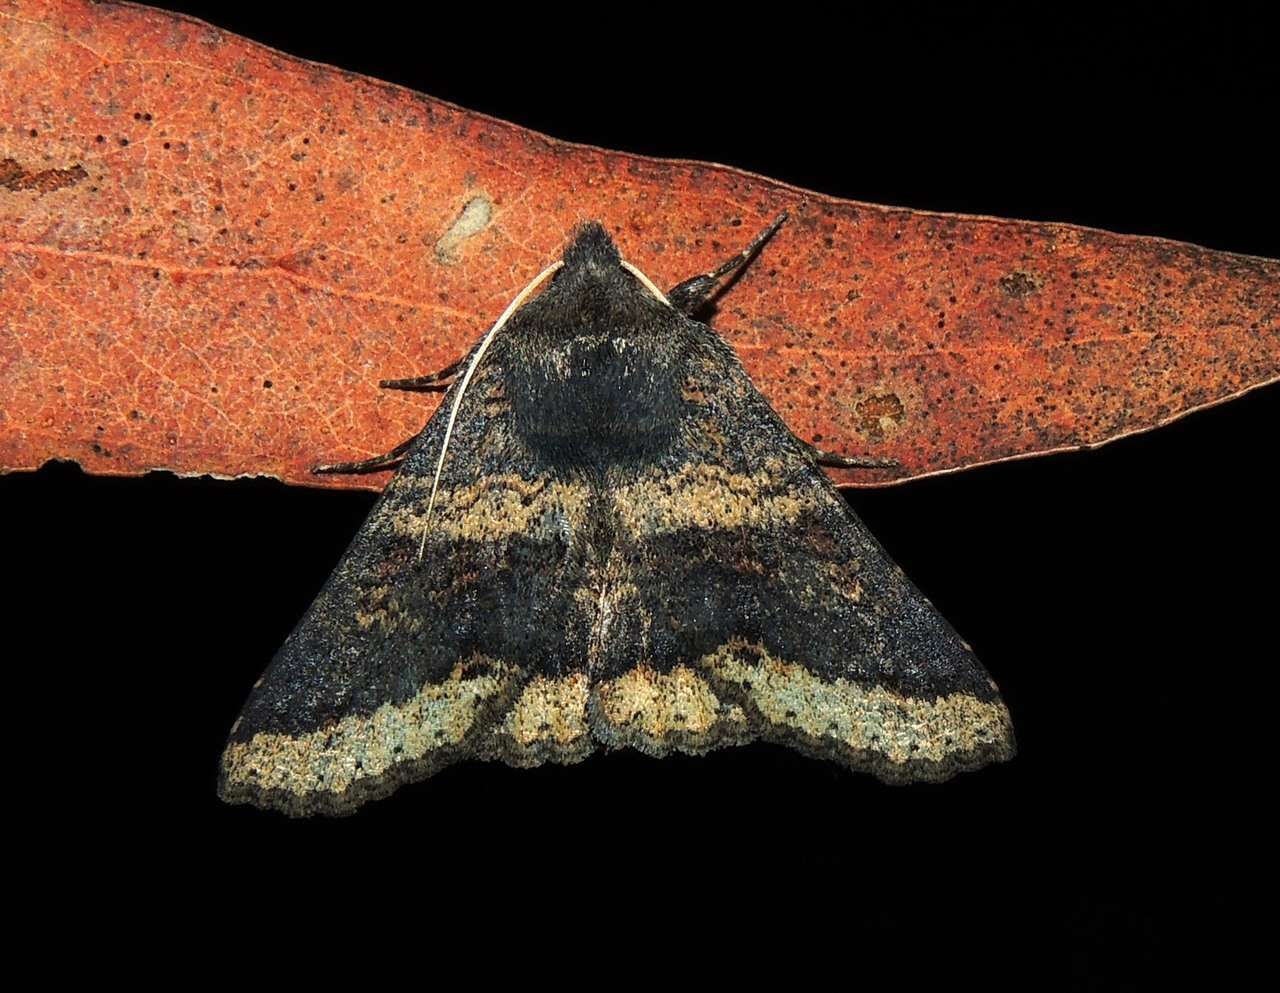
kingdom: Animalia
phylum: Arthropoda
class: Insecta
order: Lepidoptera
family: Erebidae
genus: Praxis
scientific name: Praxis pandesma
